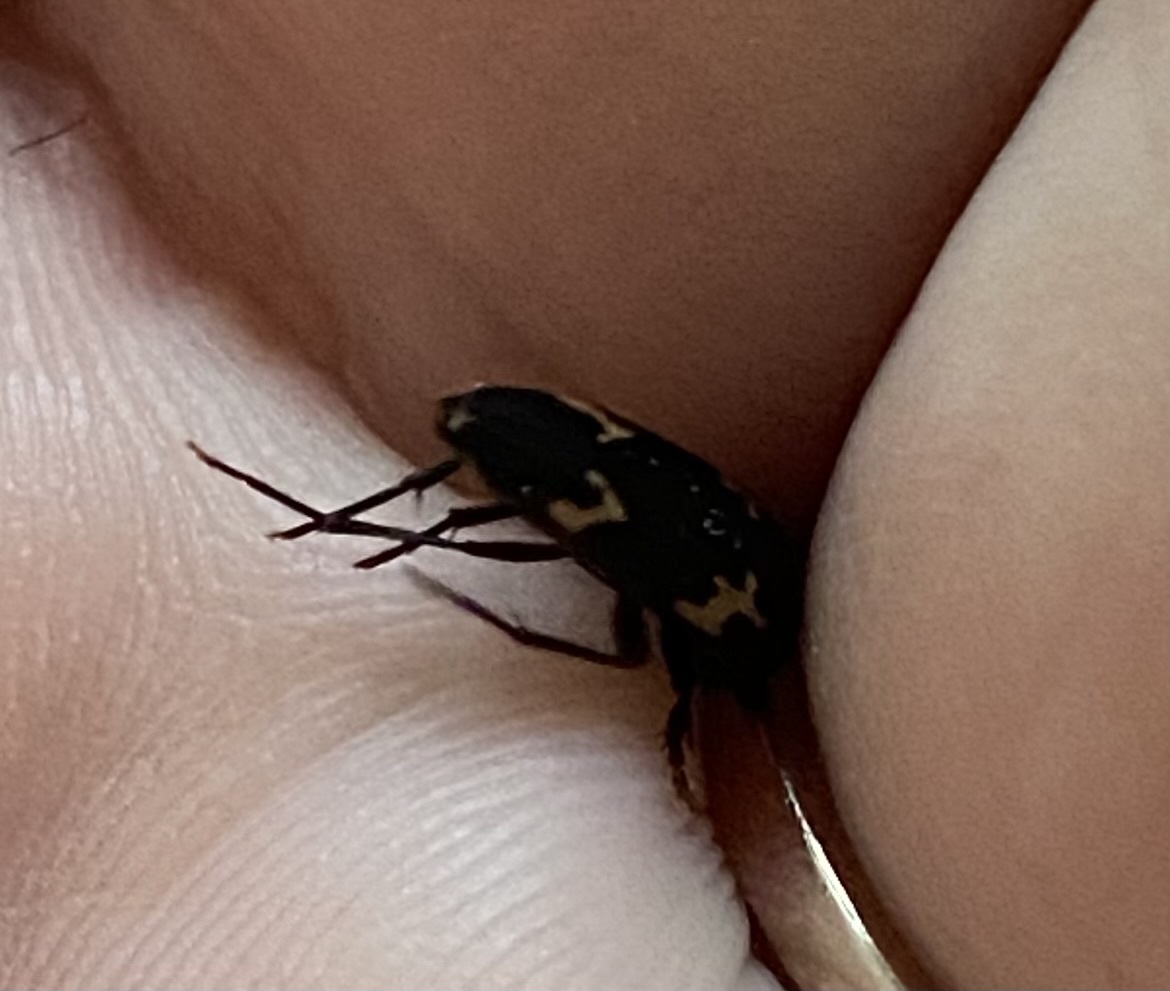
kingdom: Animalia
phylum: Arthropoda
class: Insecta
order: Coleoptera
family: Melandryidae
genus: Dircaea
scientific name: Dircaea liturata
